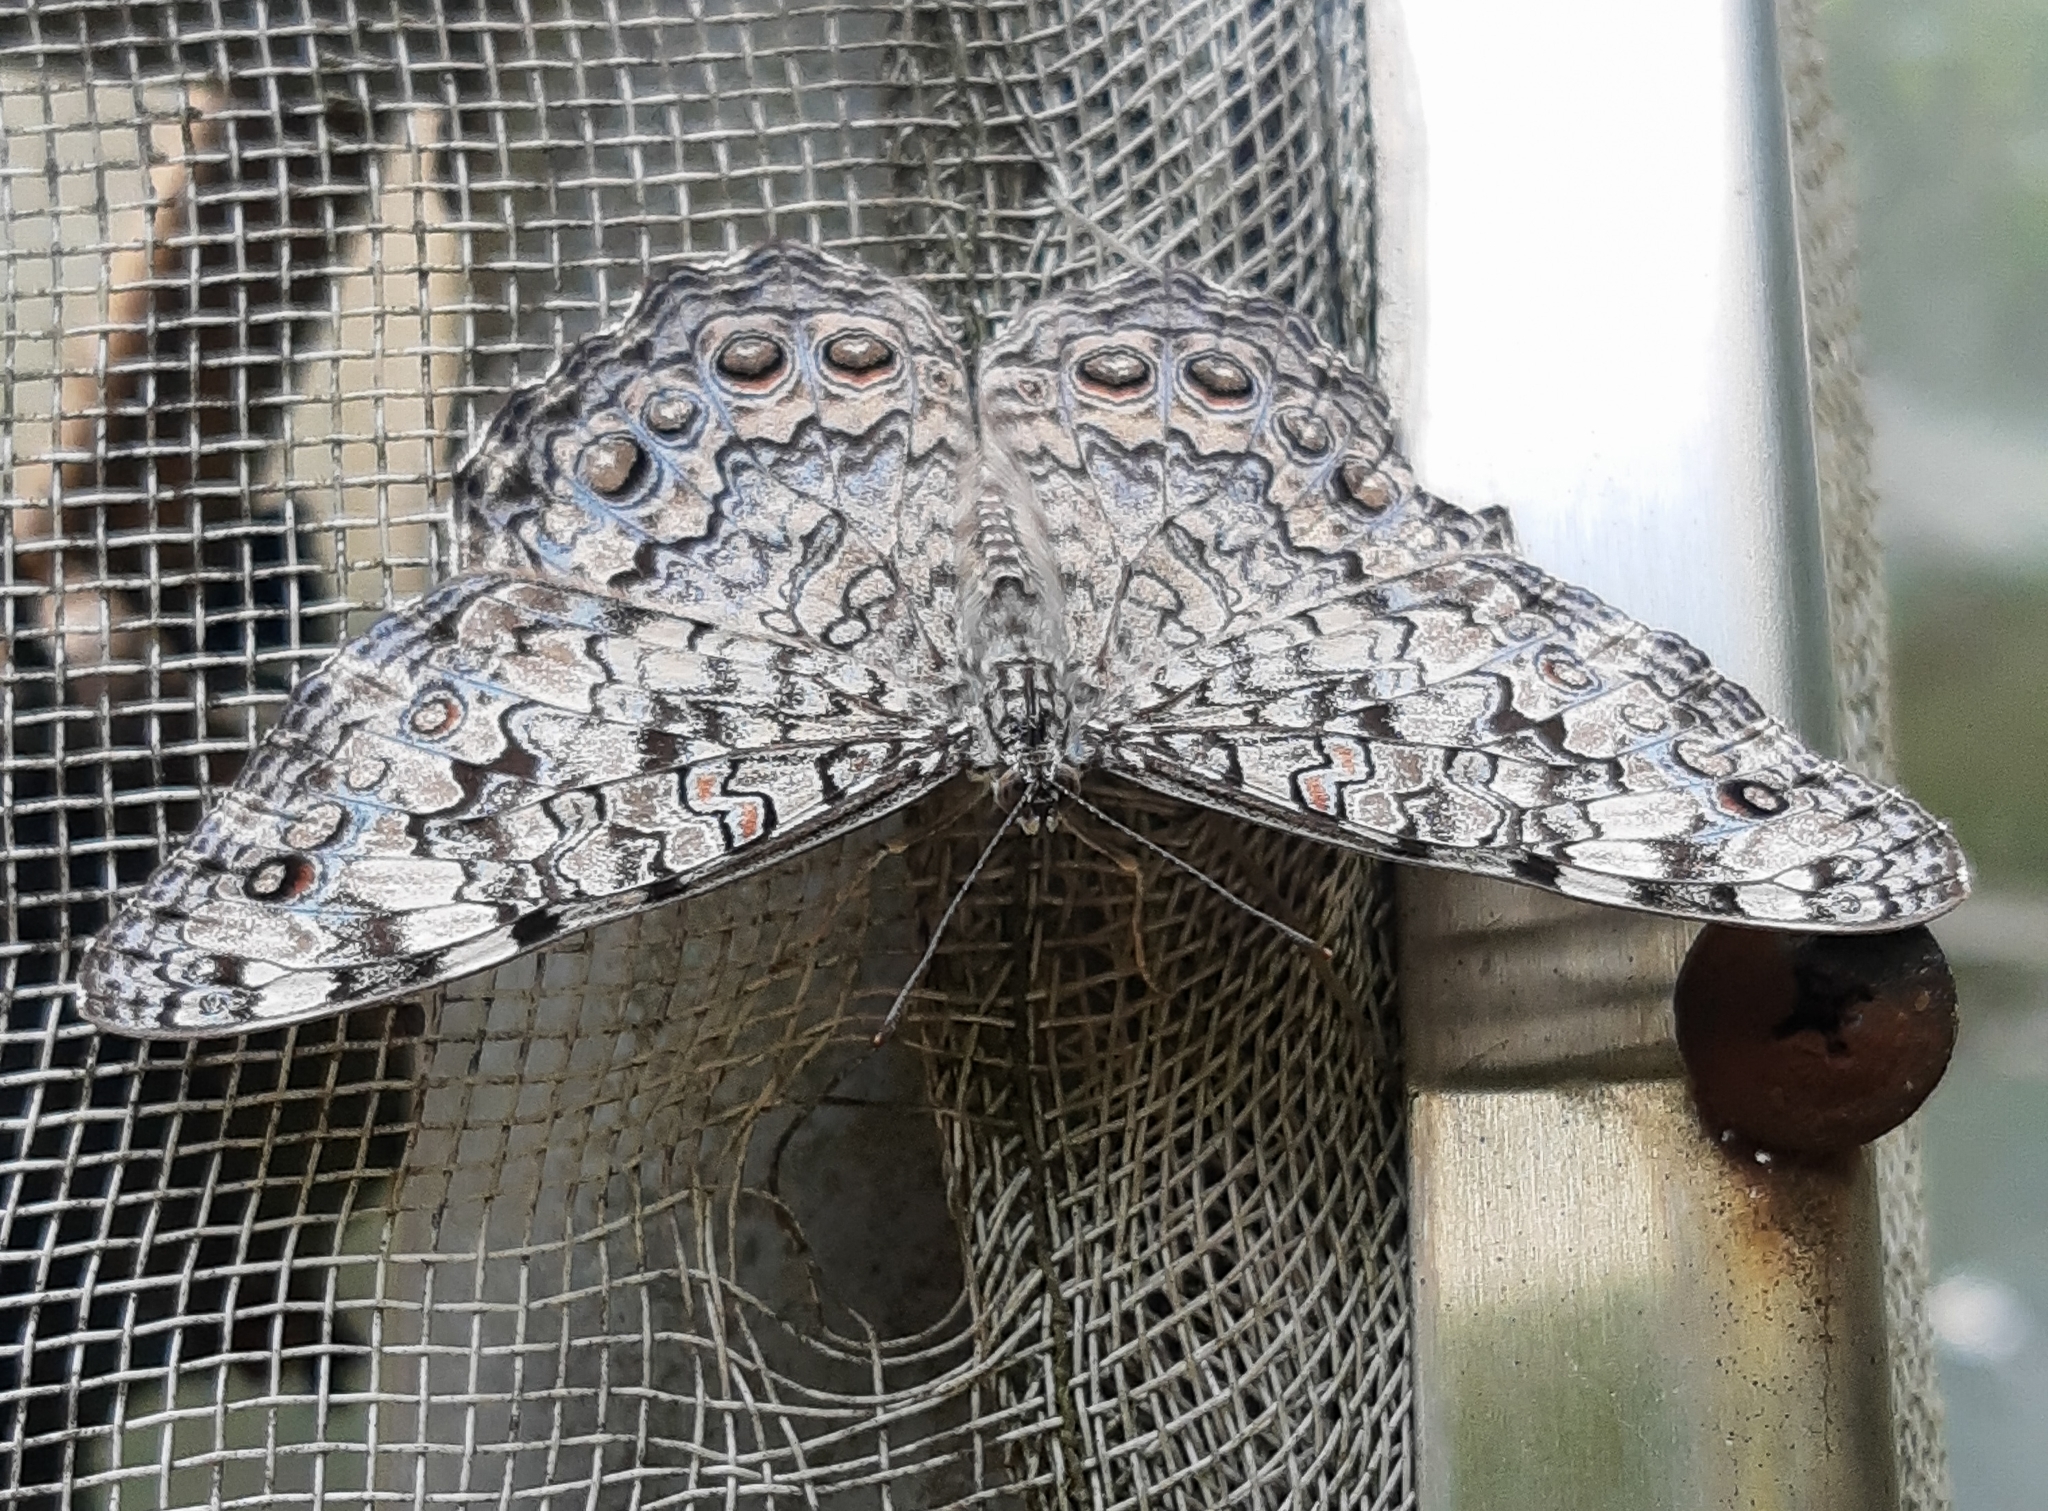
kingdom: Animalia
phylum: Arthropoda
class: Insecta
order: Lepidoptera
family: Nymphalidae
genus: Hamadryas
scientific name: Hamadryas februa
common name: Gray cracker
